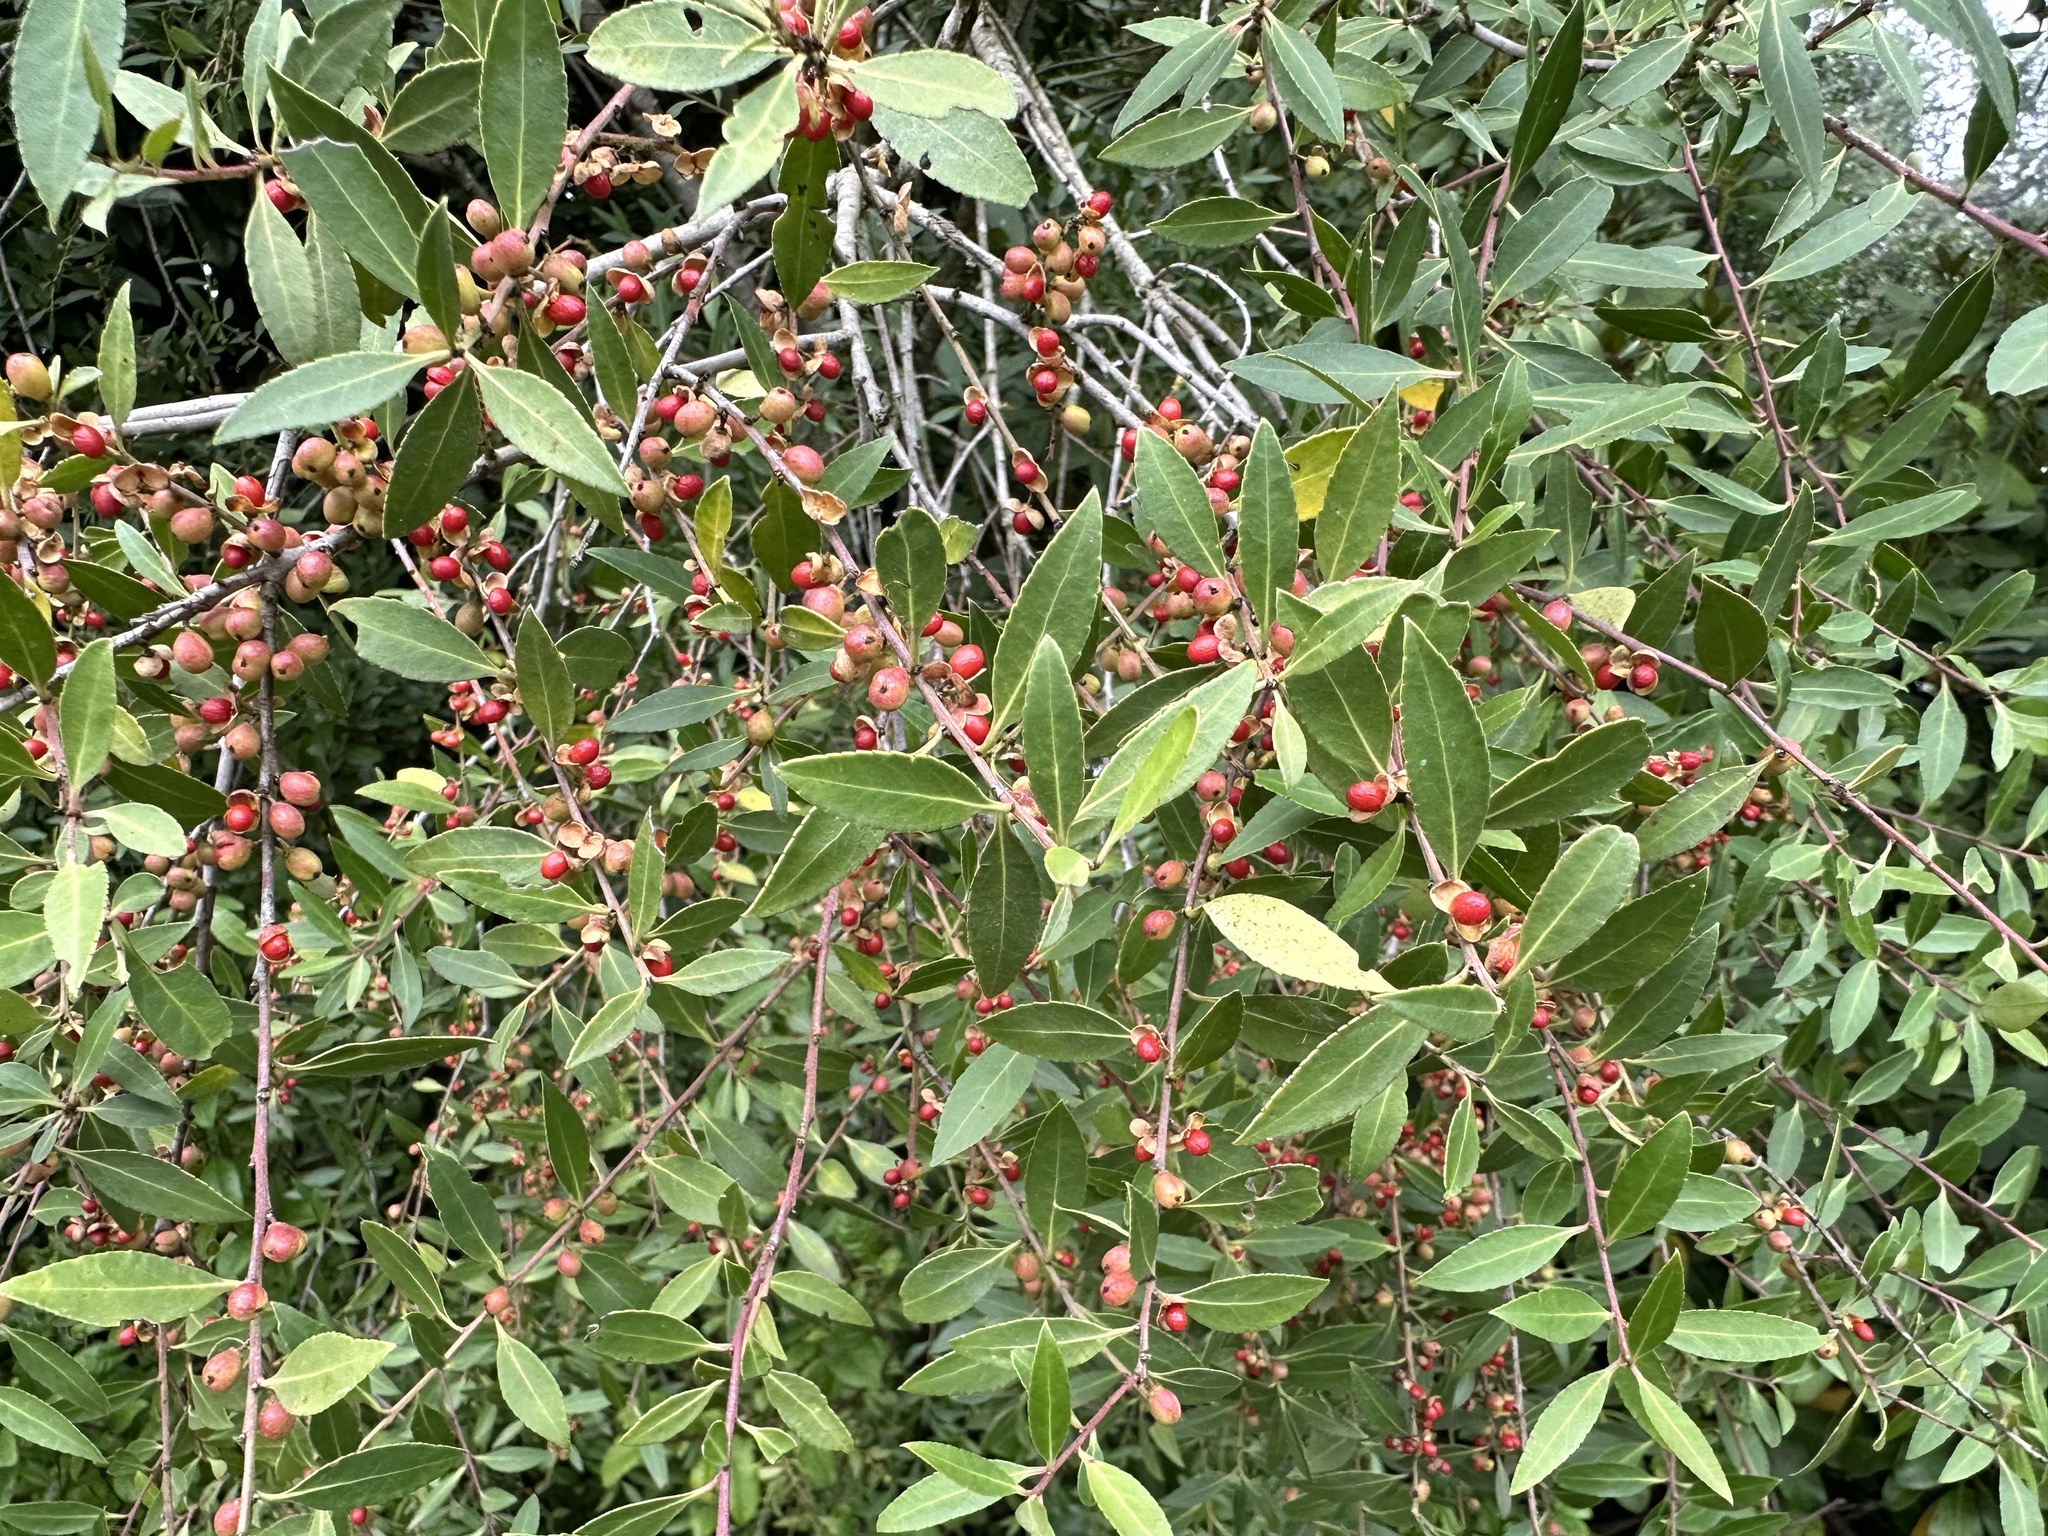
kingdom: Plantae
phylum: Tracheophyta
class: Magnoliopsida
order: Celastrales
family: Celastraceae
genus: Maytenus
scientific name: Maytenus boaria
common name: Mayten
